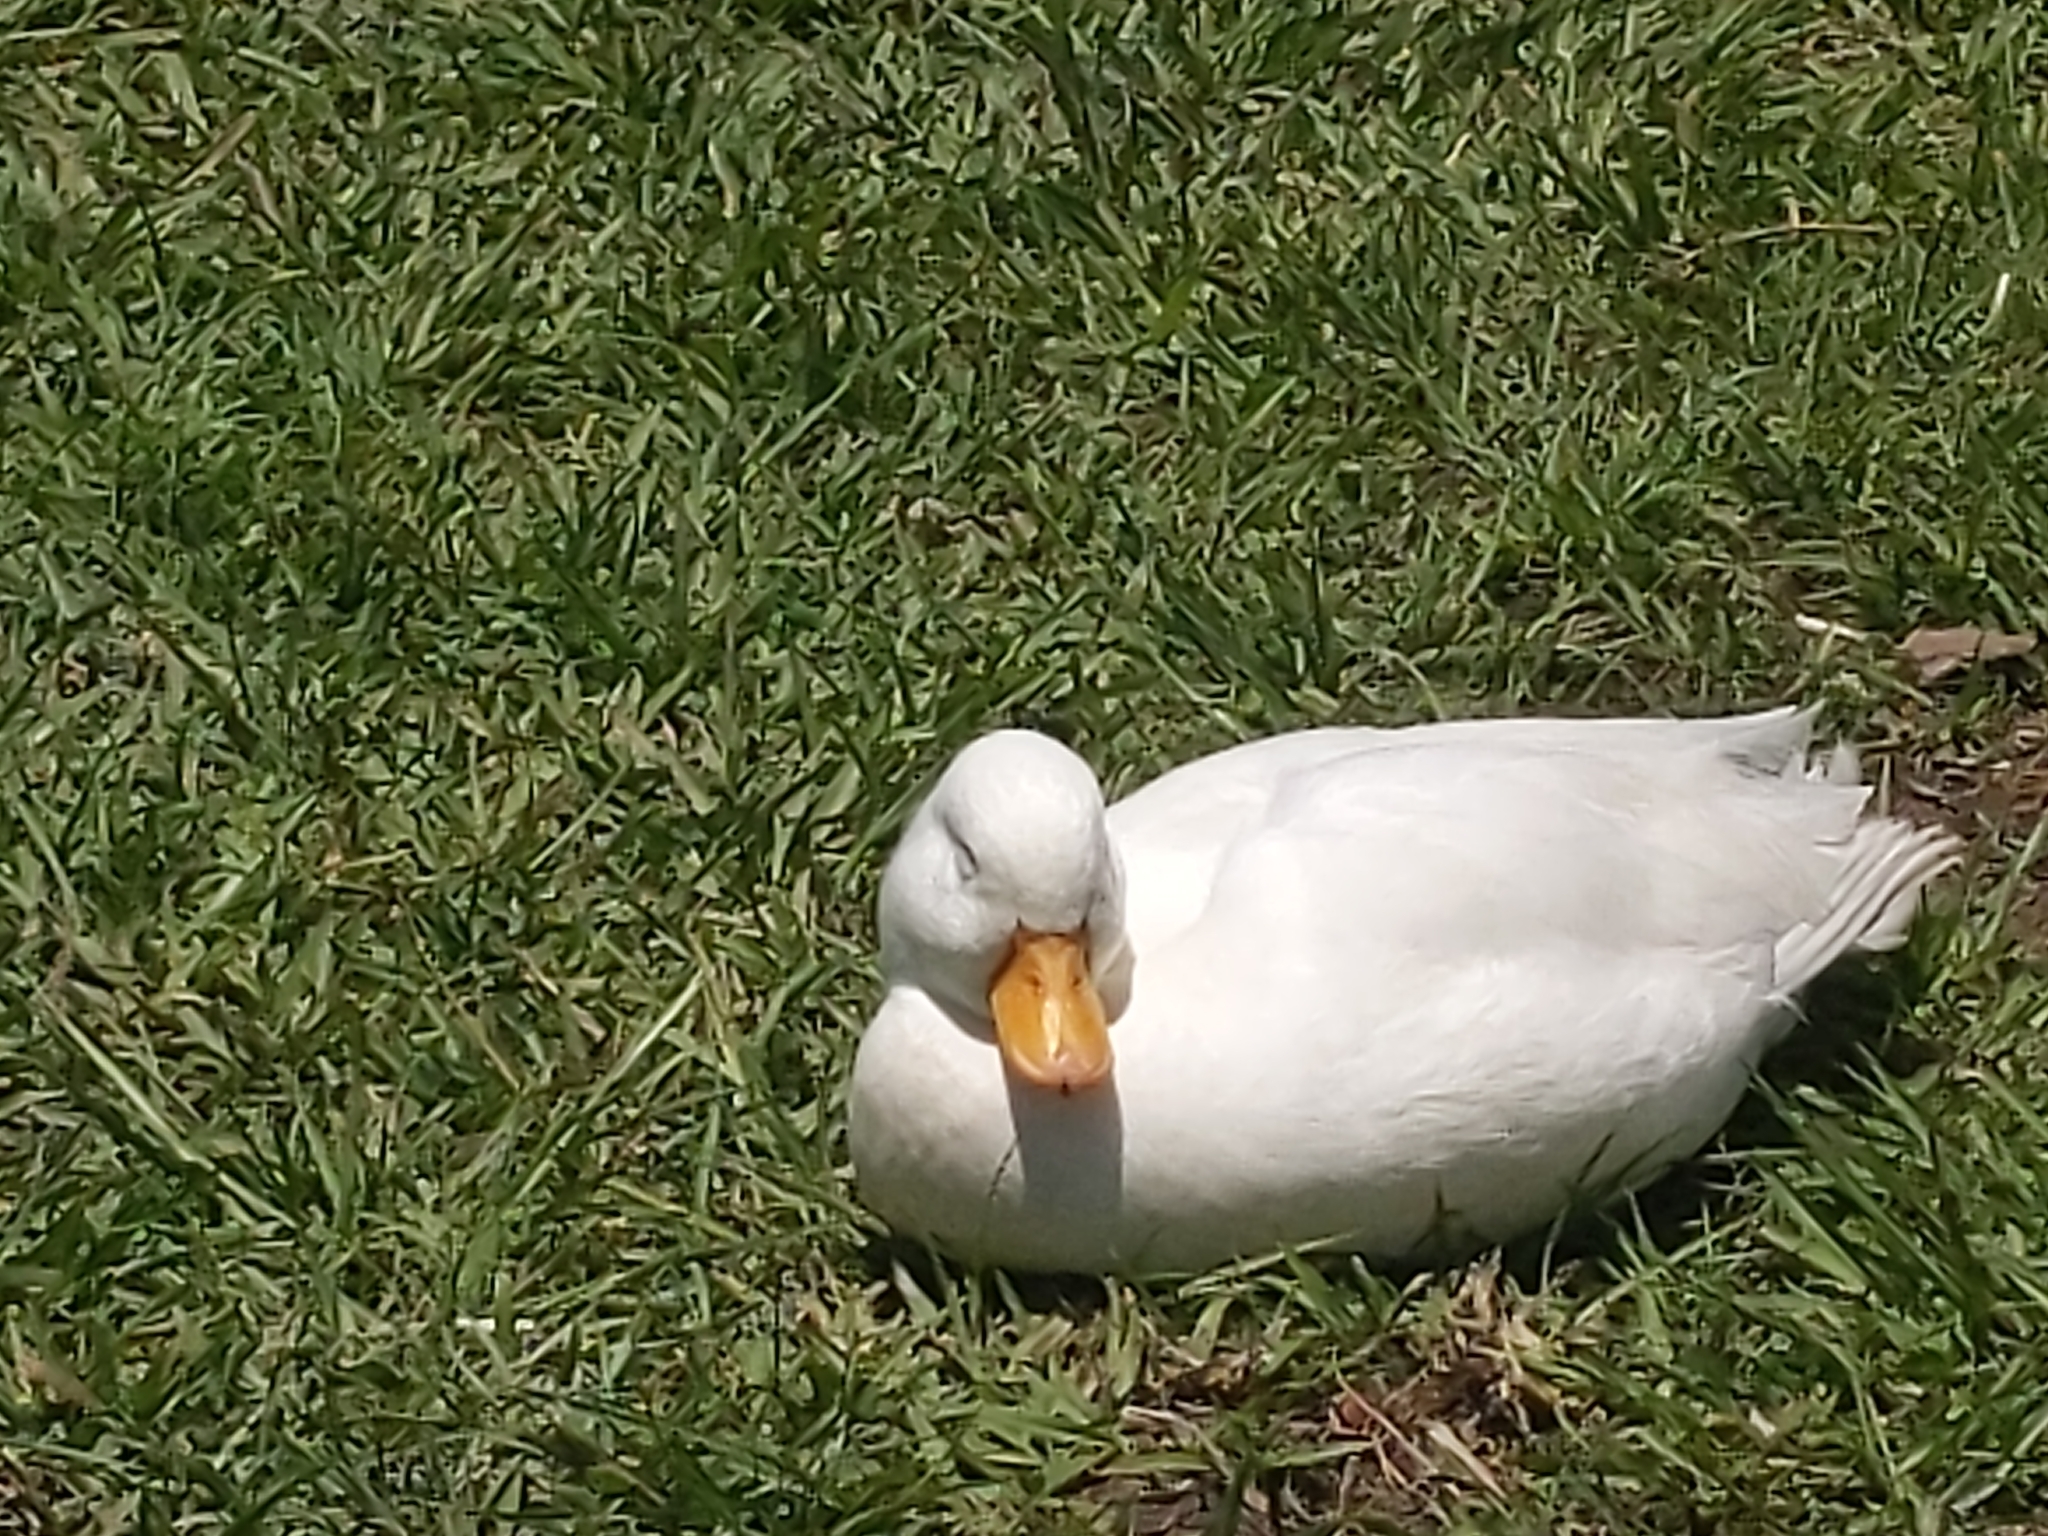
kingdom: Animalia
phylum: Chordata
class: Aves
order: Anseriformes
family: Anatidae
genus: Anas
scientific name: Anas platyrhynchos
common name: Mallard
